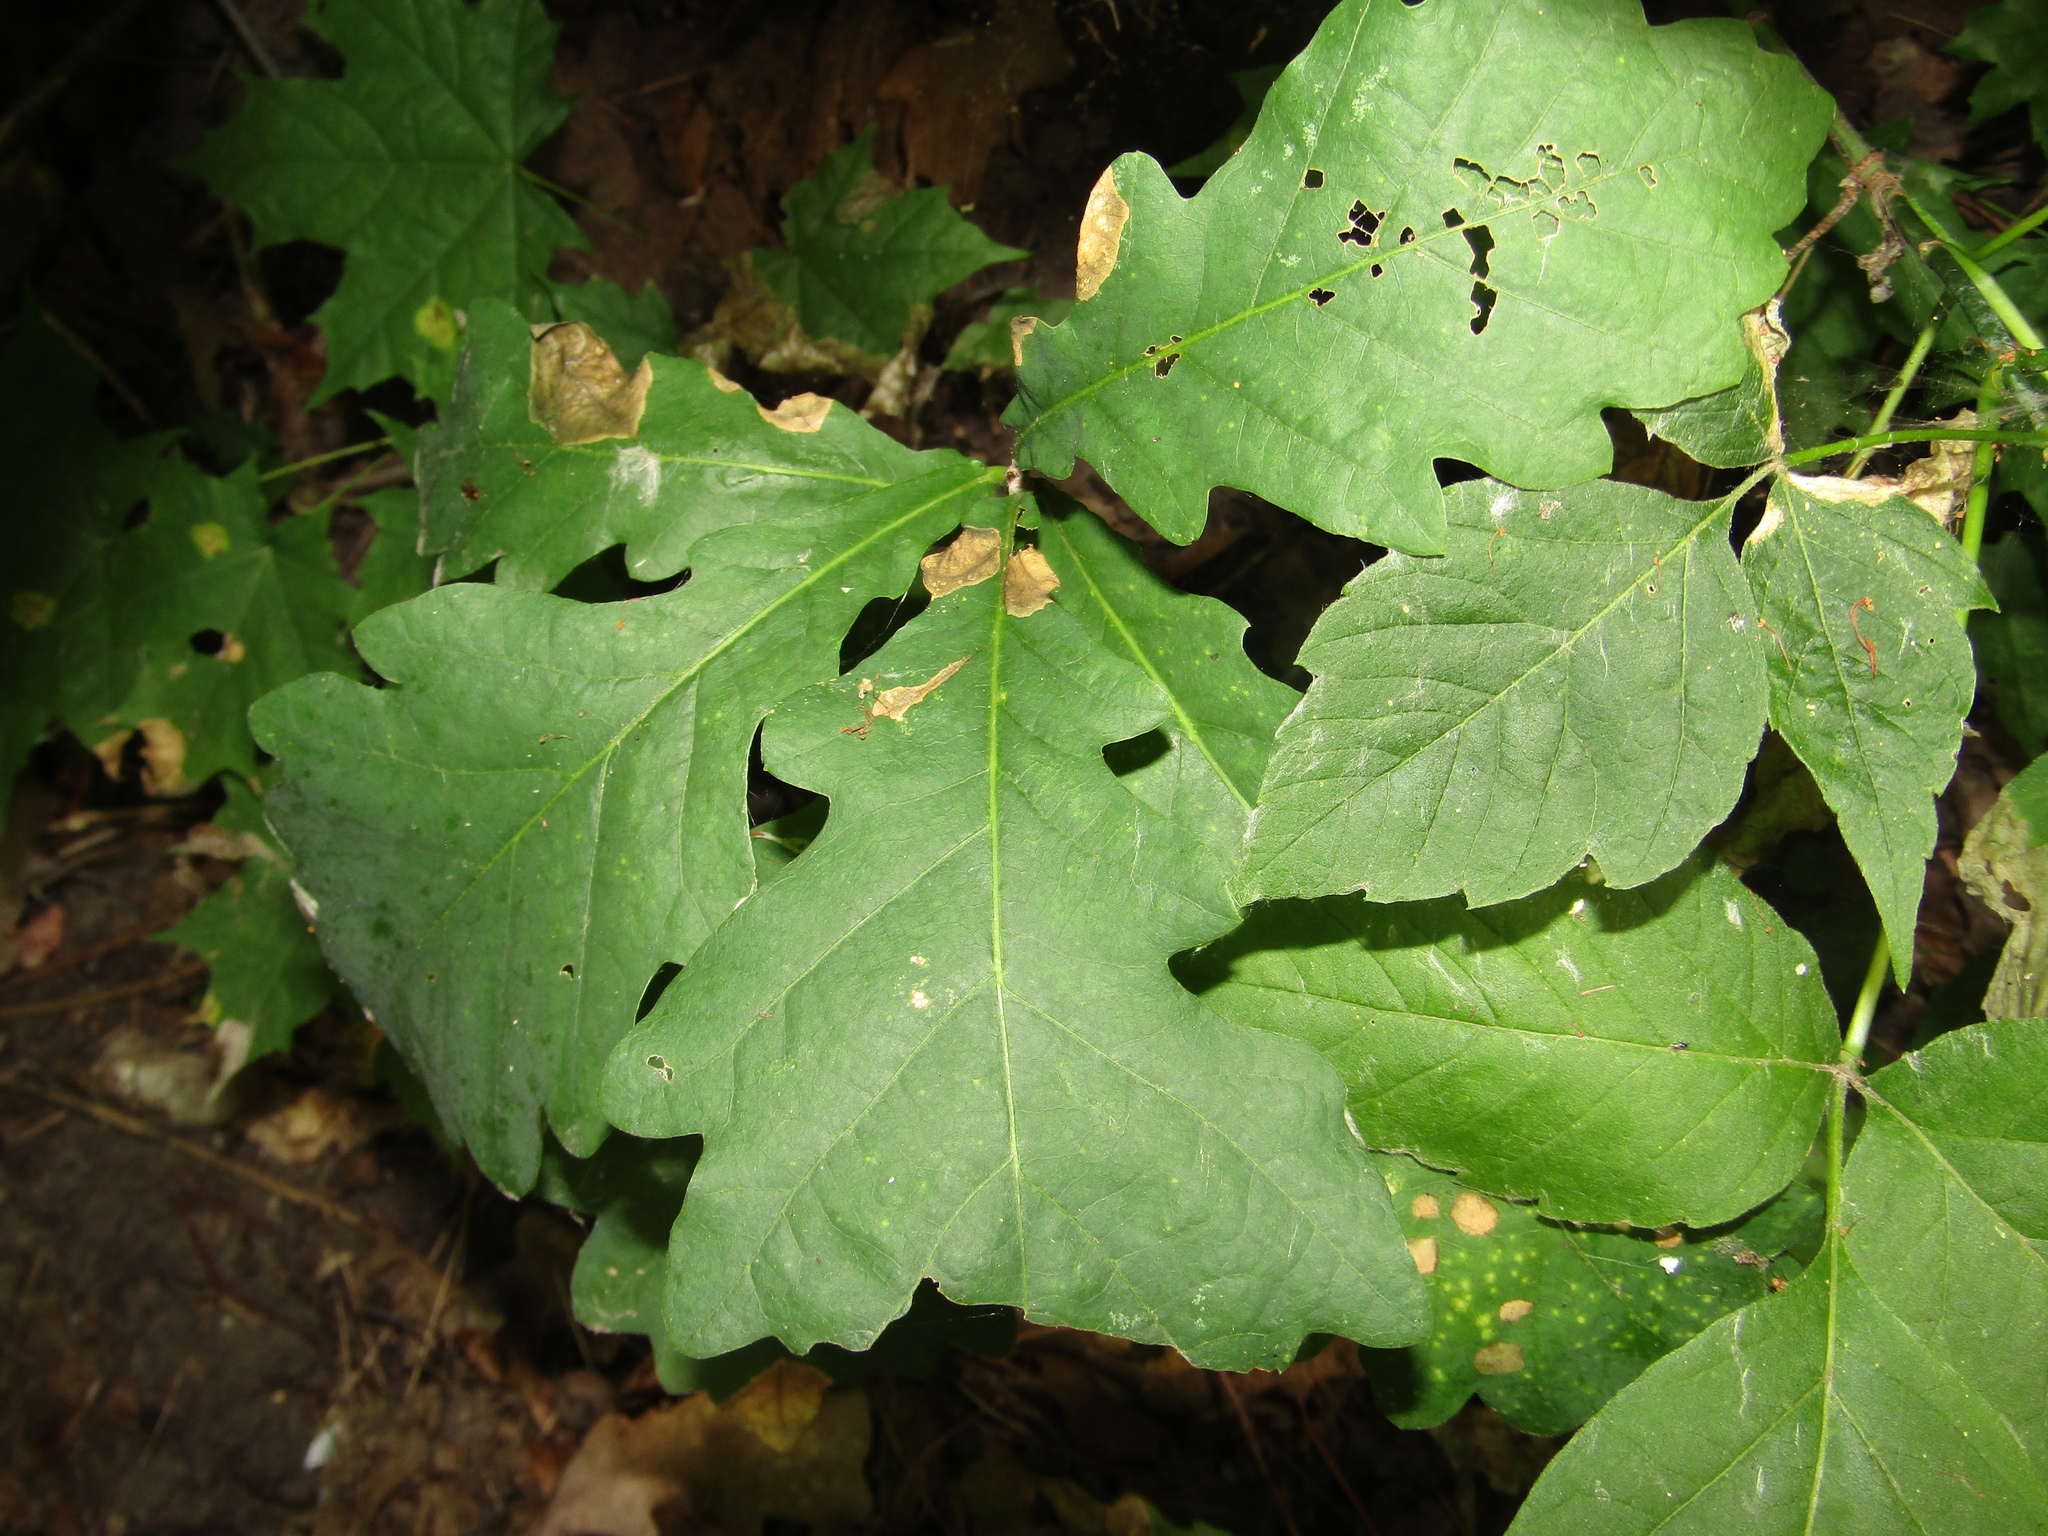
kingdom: Plantae
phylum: Tracheophyta
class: Magnoliopsida
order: Fagales
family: Fagaceae
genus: Quercus
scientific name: Quercus robur
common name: Pedunculate oak
